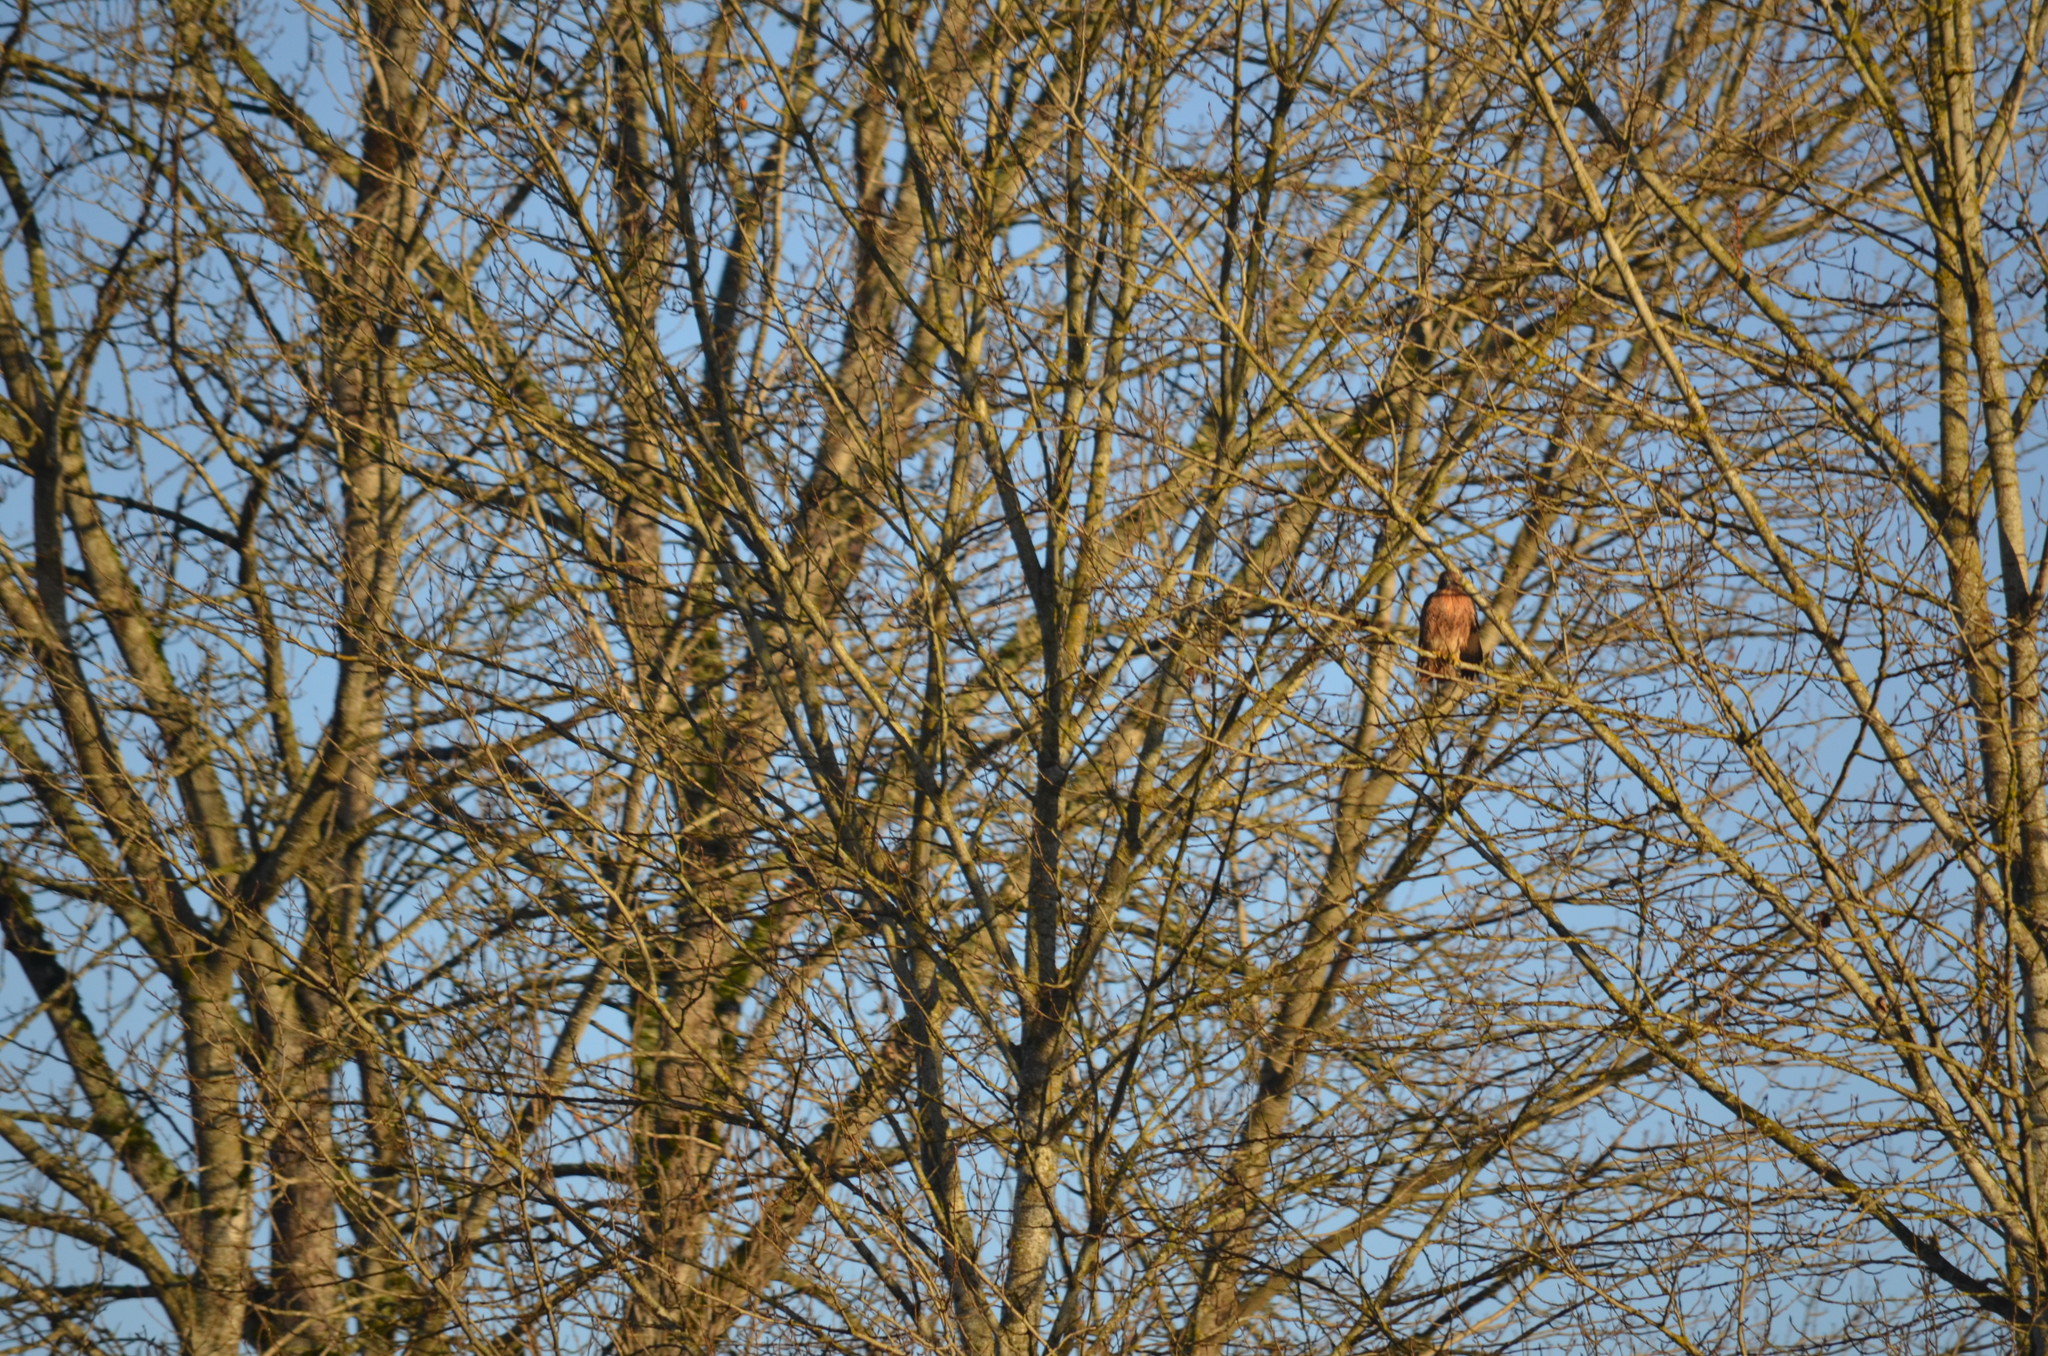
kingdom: Animalia
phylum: Chordata
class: Aves
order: Accipitriformes
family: Accipitridae
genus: Buteo
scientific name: Buteo jamaicensis
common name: Red-tailed hawk
